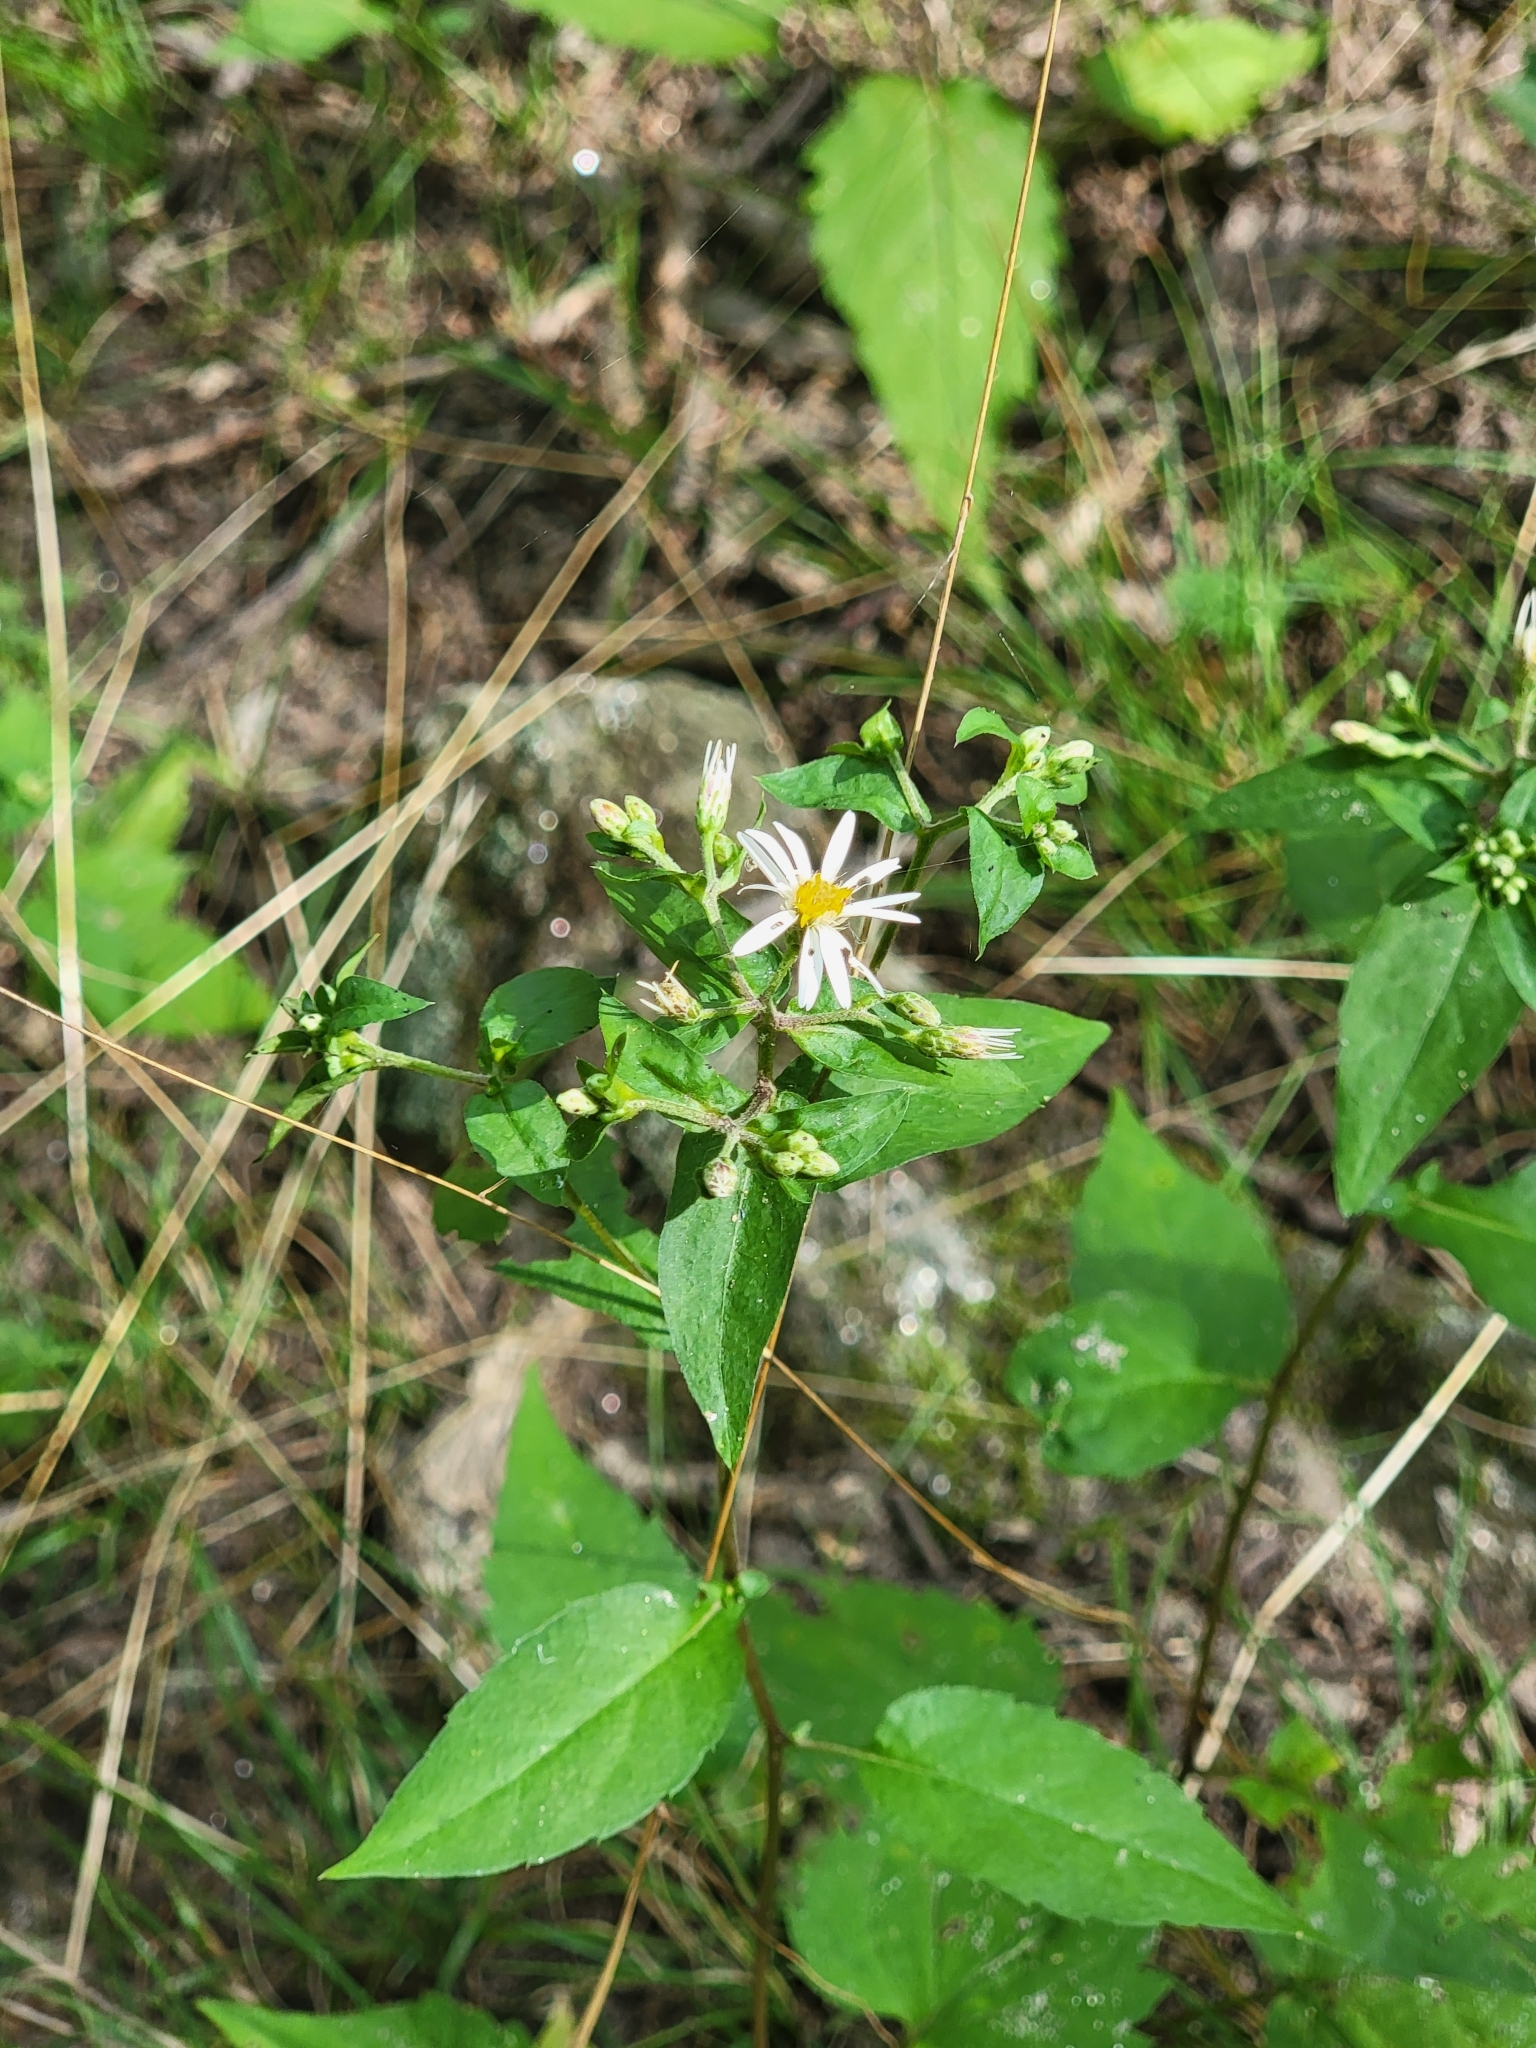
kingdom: Plantae
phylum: Tracheophyta
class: Magnoliopsida
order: Asterales
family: Asteraceae
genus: Eurybia
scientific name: Eurybia divaricata
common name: White wood aster
